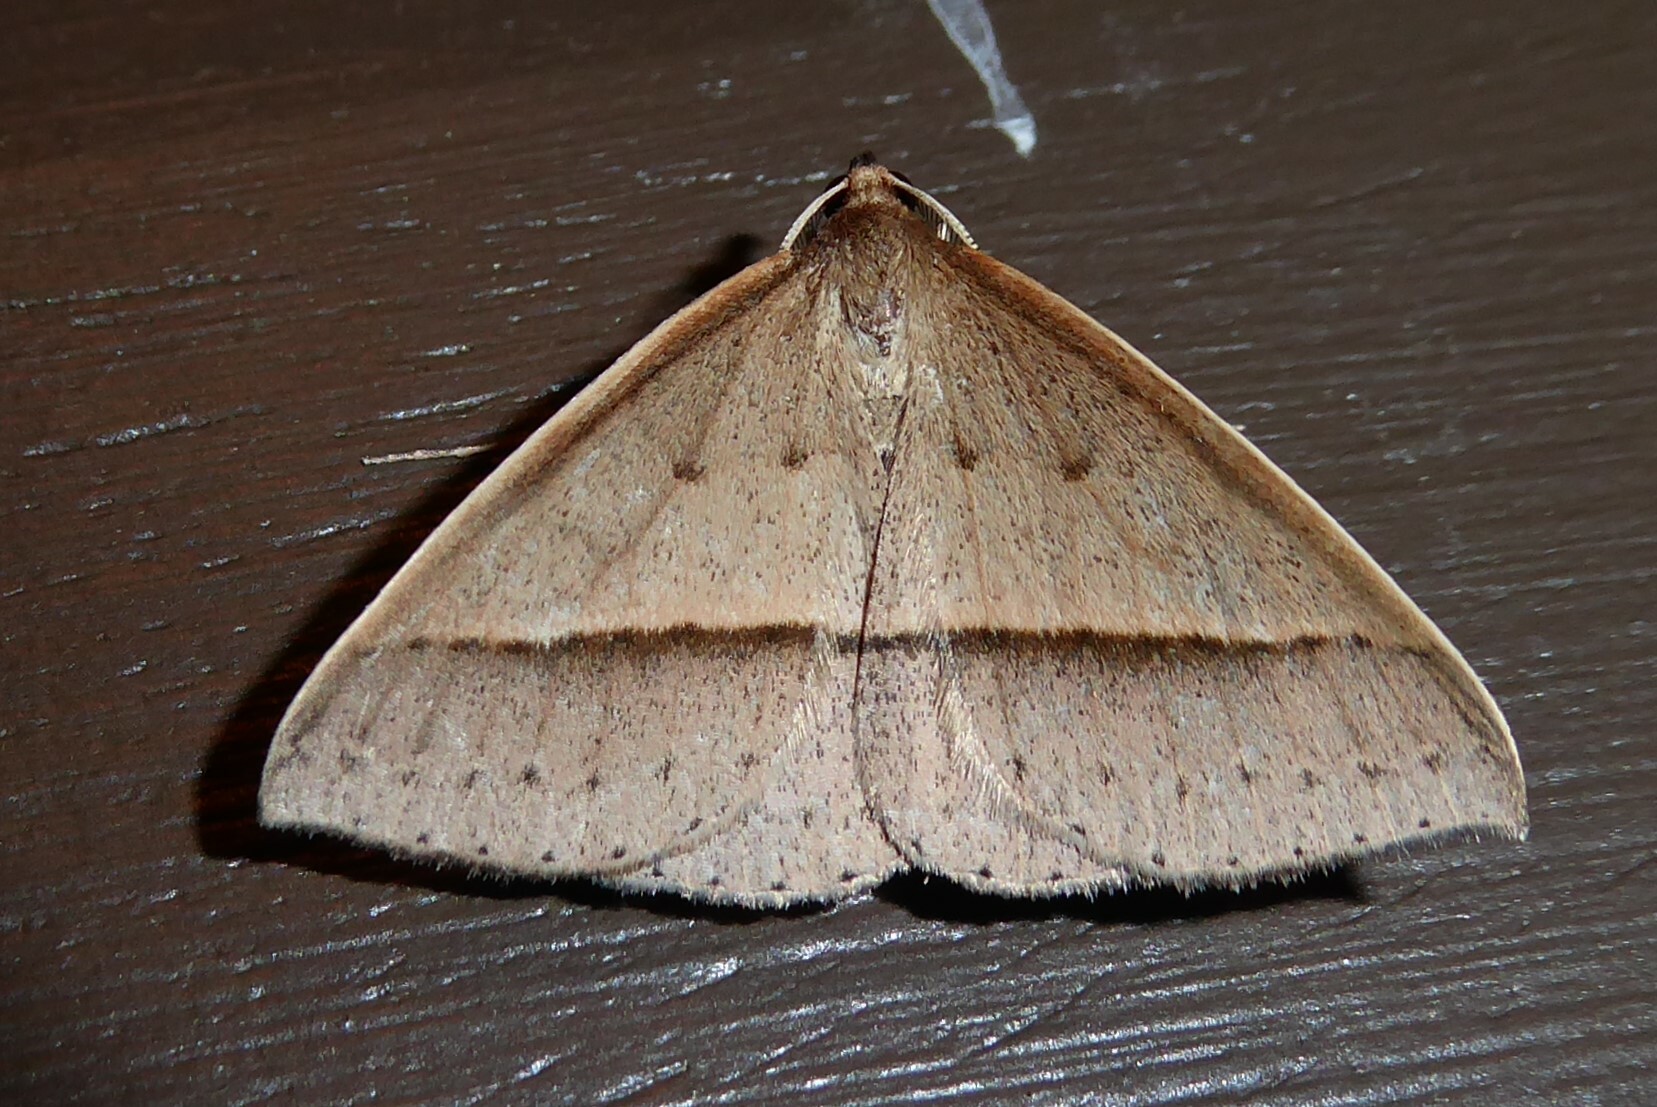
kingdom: Animalia
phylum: Arthropoda
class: Insecta
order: Lepidoptera
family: Geometridae
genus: Epidesmia
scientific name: Epidesmia tryxaria
